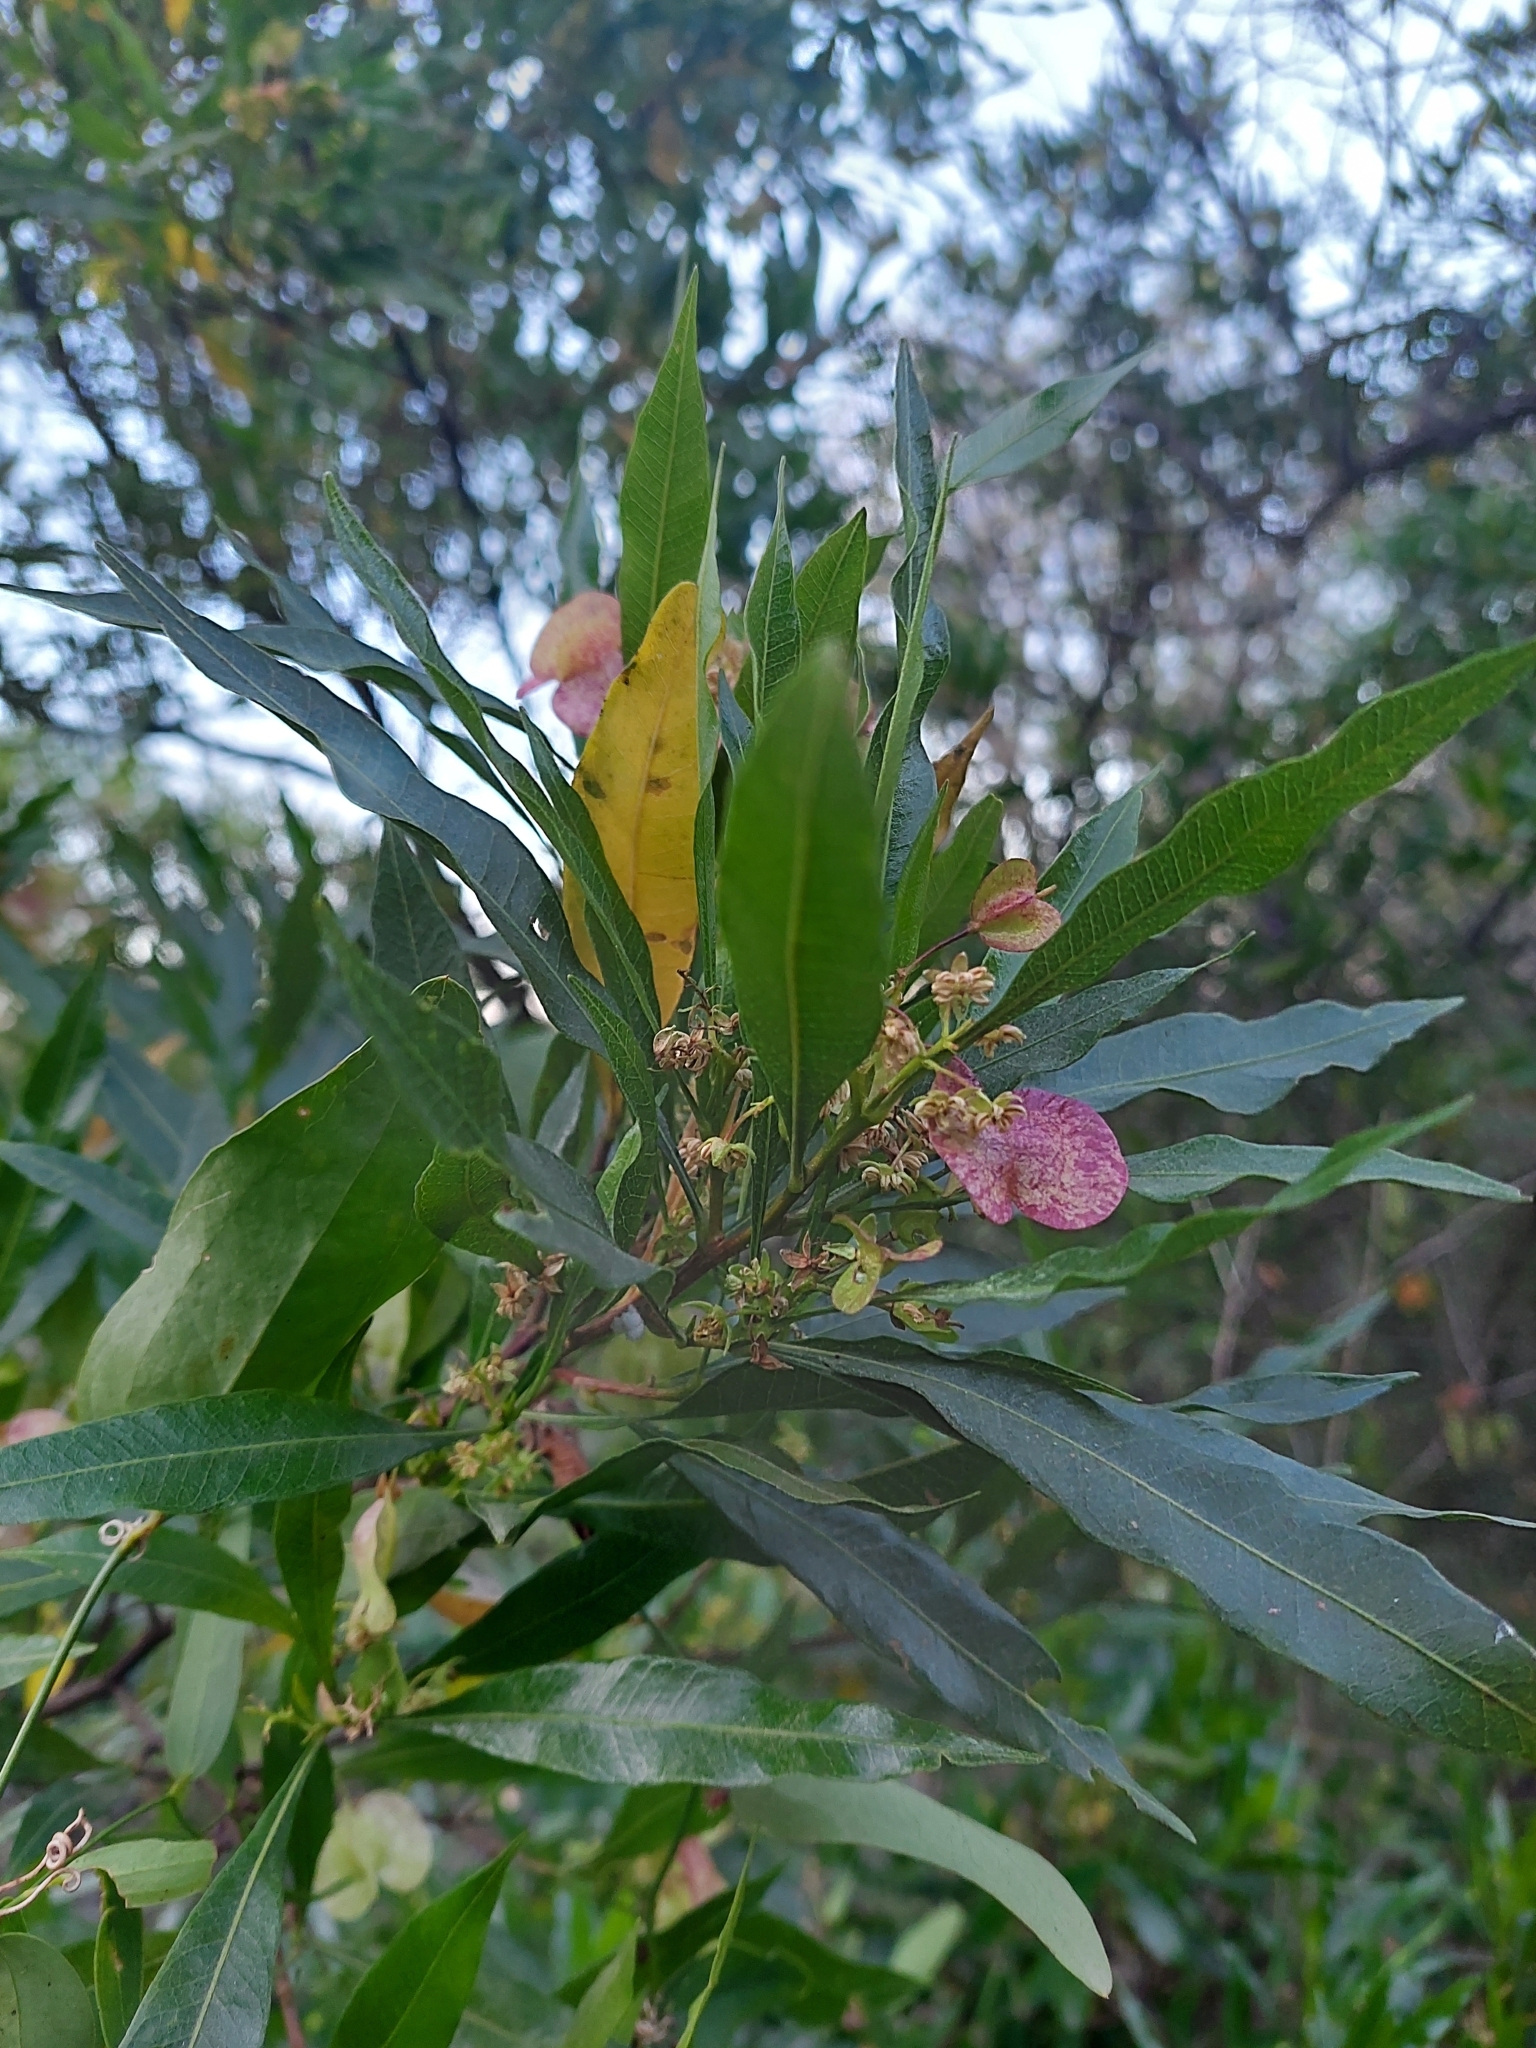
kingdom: Plantae
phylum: Tracheophyta
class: Magnoliopsida
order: Sapindales
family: Sapindaceae
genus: Dodonaea
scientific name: Dodonaea viscosa
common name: Hopbush
